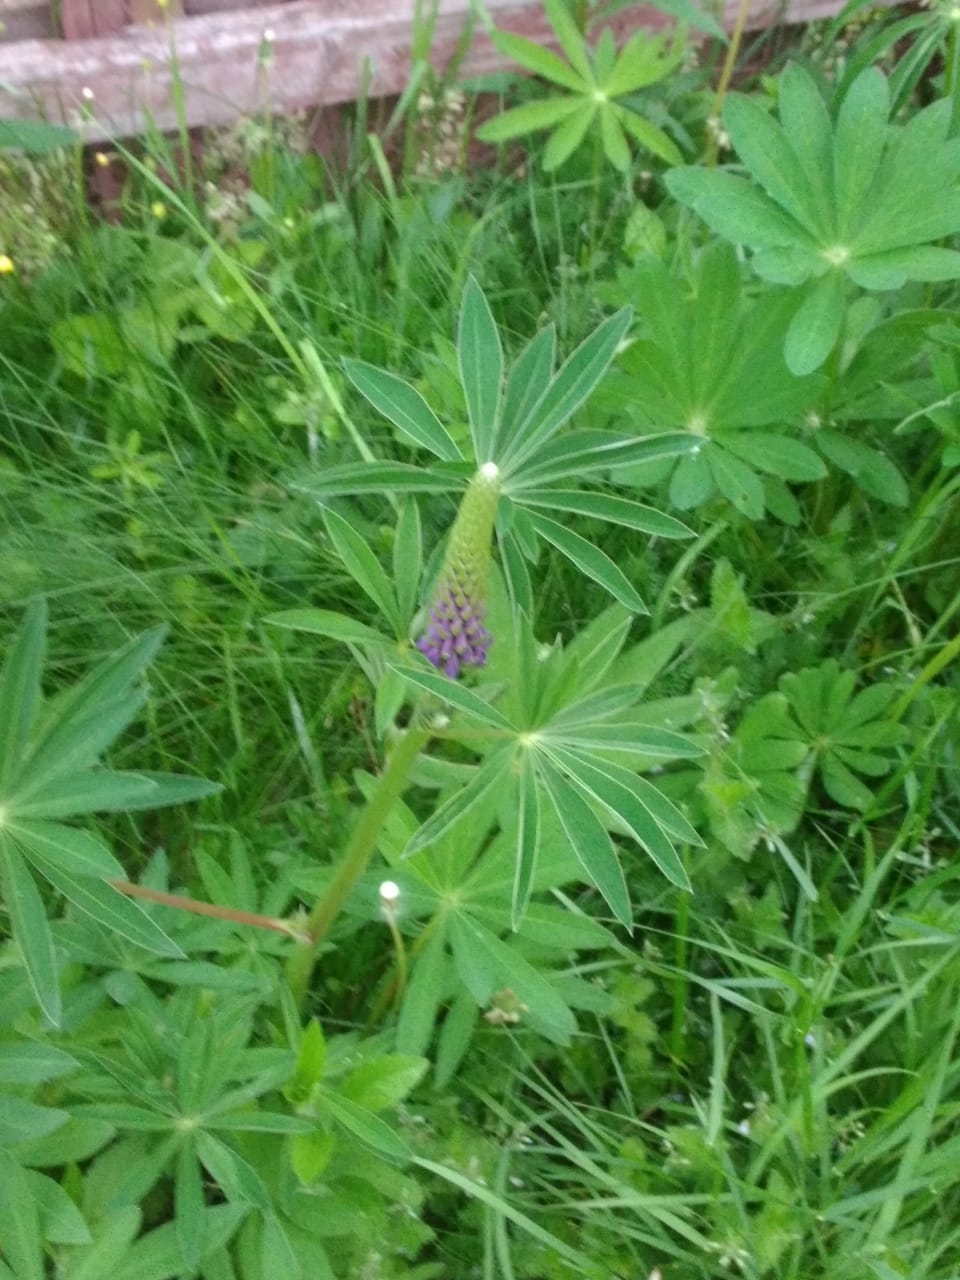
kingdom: Plantae
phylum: Tracheophyta
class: Magnoliopsida
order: Fabales
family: Fabaceae
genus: Lupinus
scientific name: Lupinus polyphyllus
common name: Garden lupin
